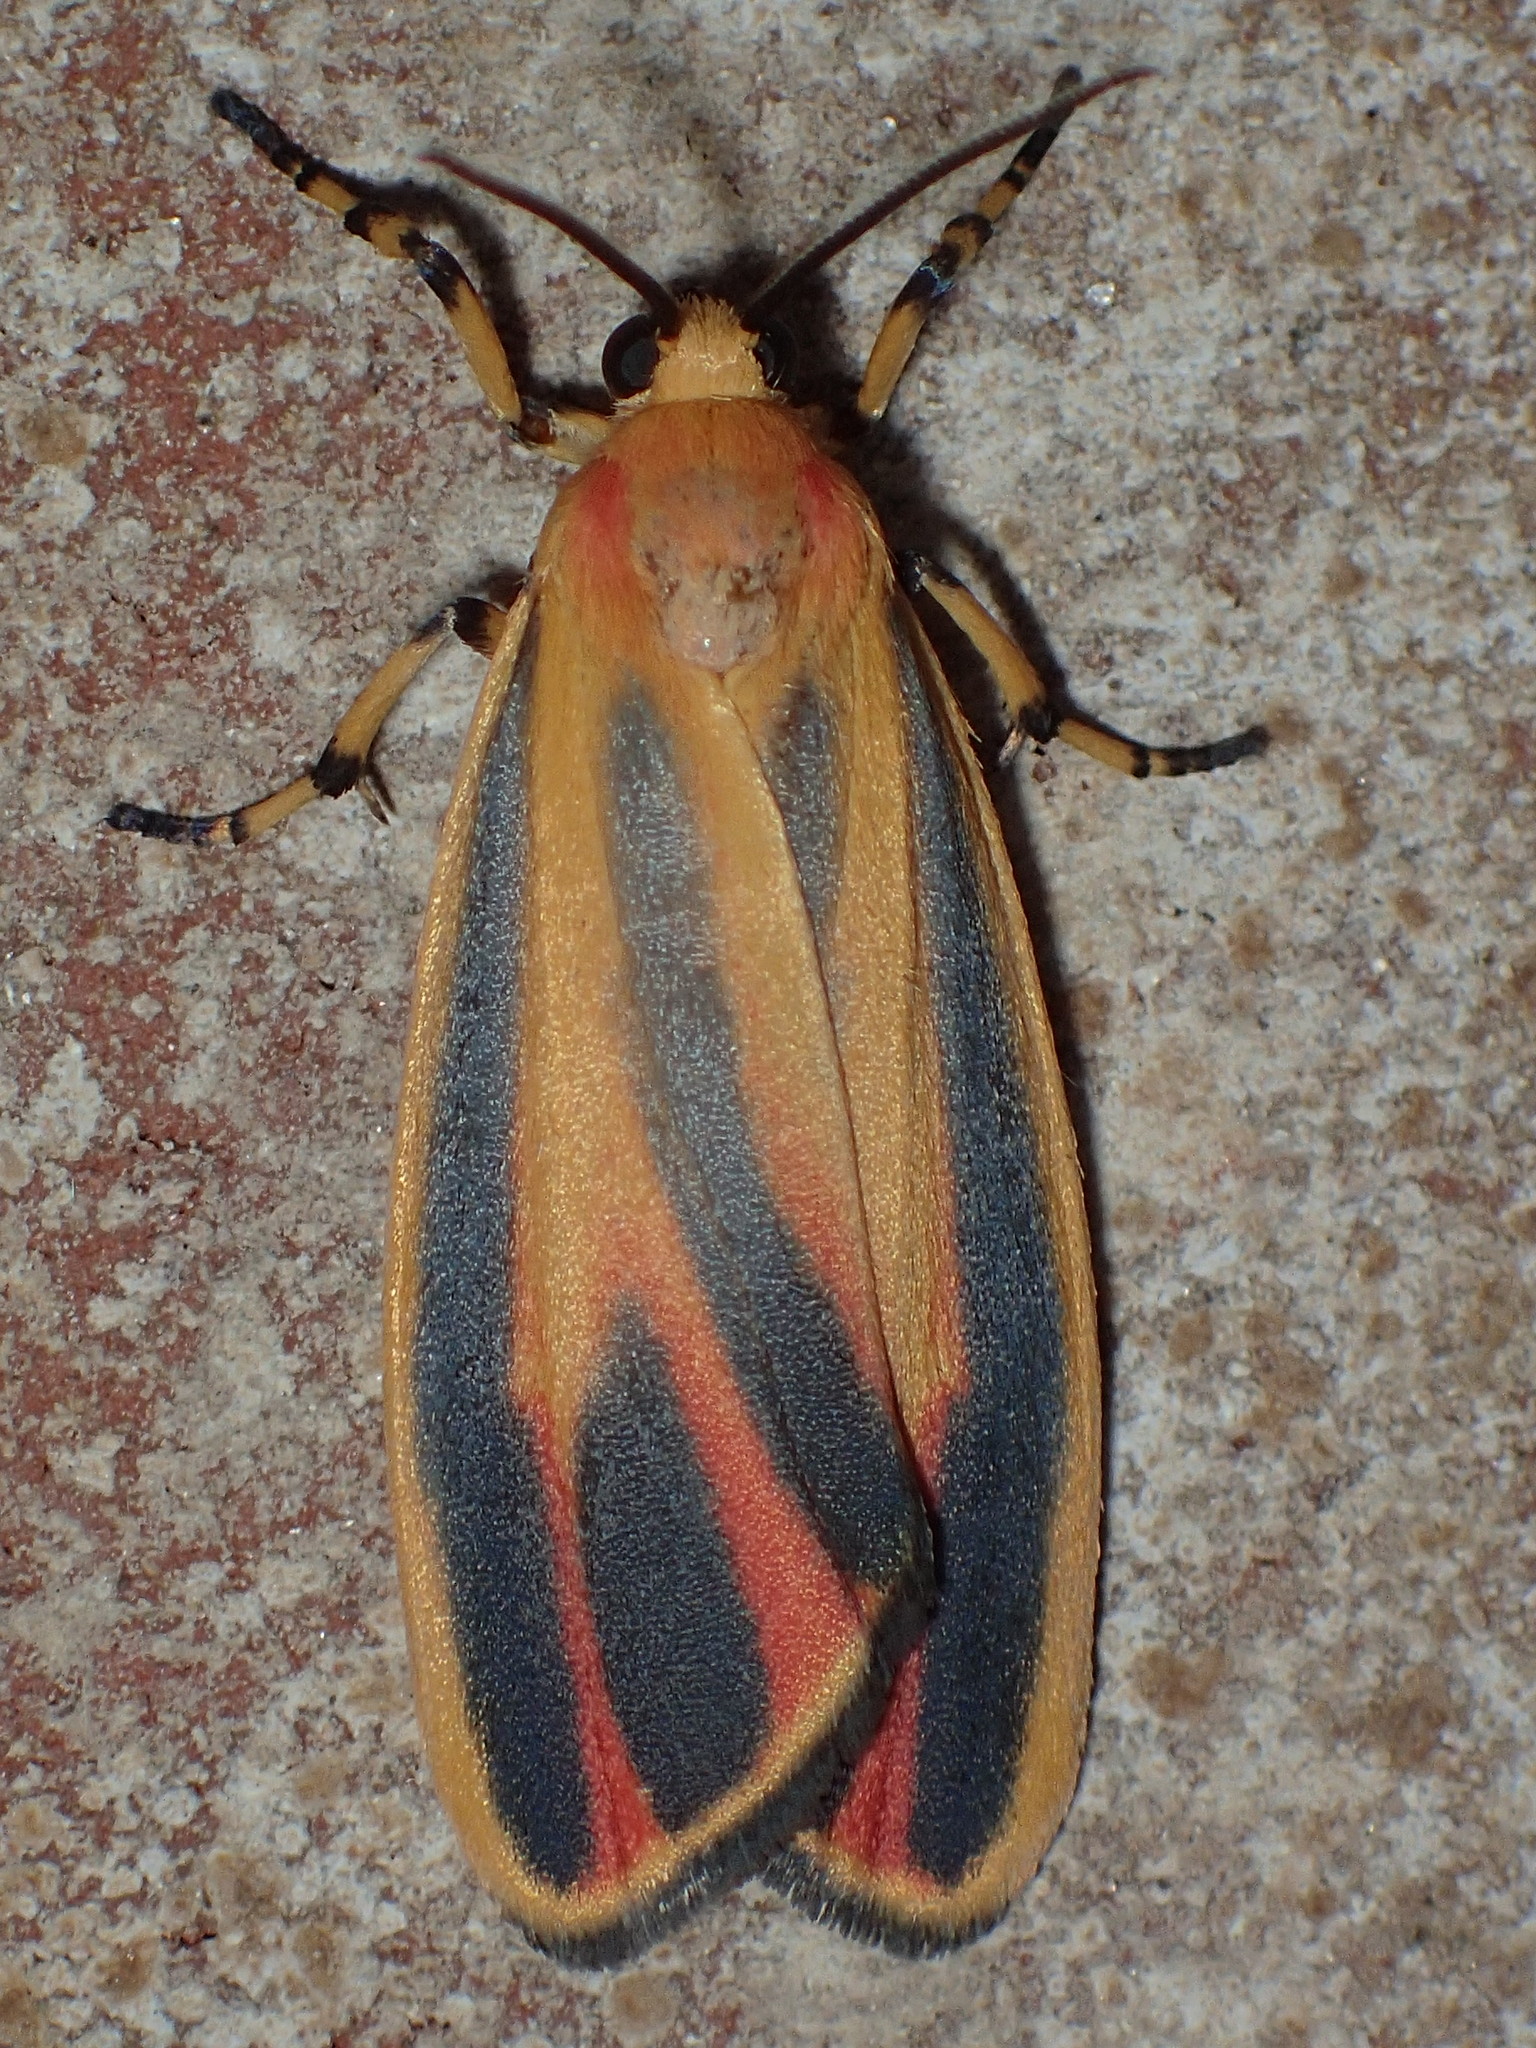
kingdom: Animalia
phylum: Arthropoda
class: Insecta
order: Lepidoptera
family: Erebidae
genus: Hypoprepia
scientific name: Hypoprepia fucosa
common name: Painted lichen moth
